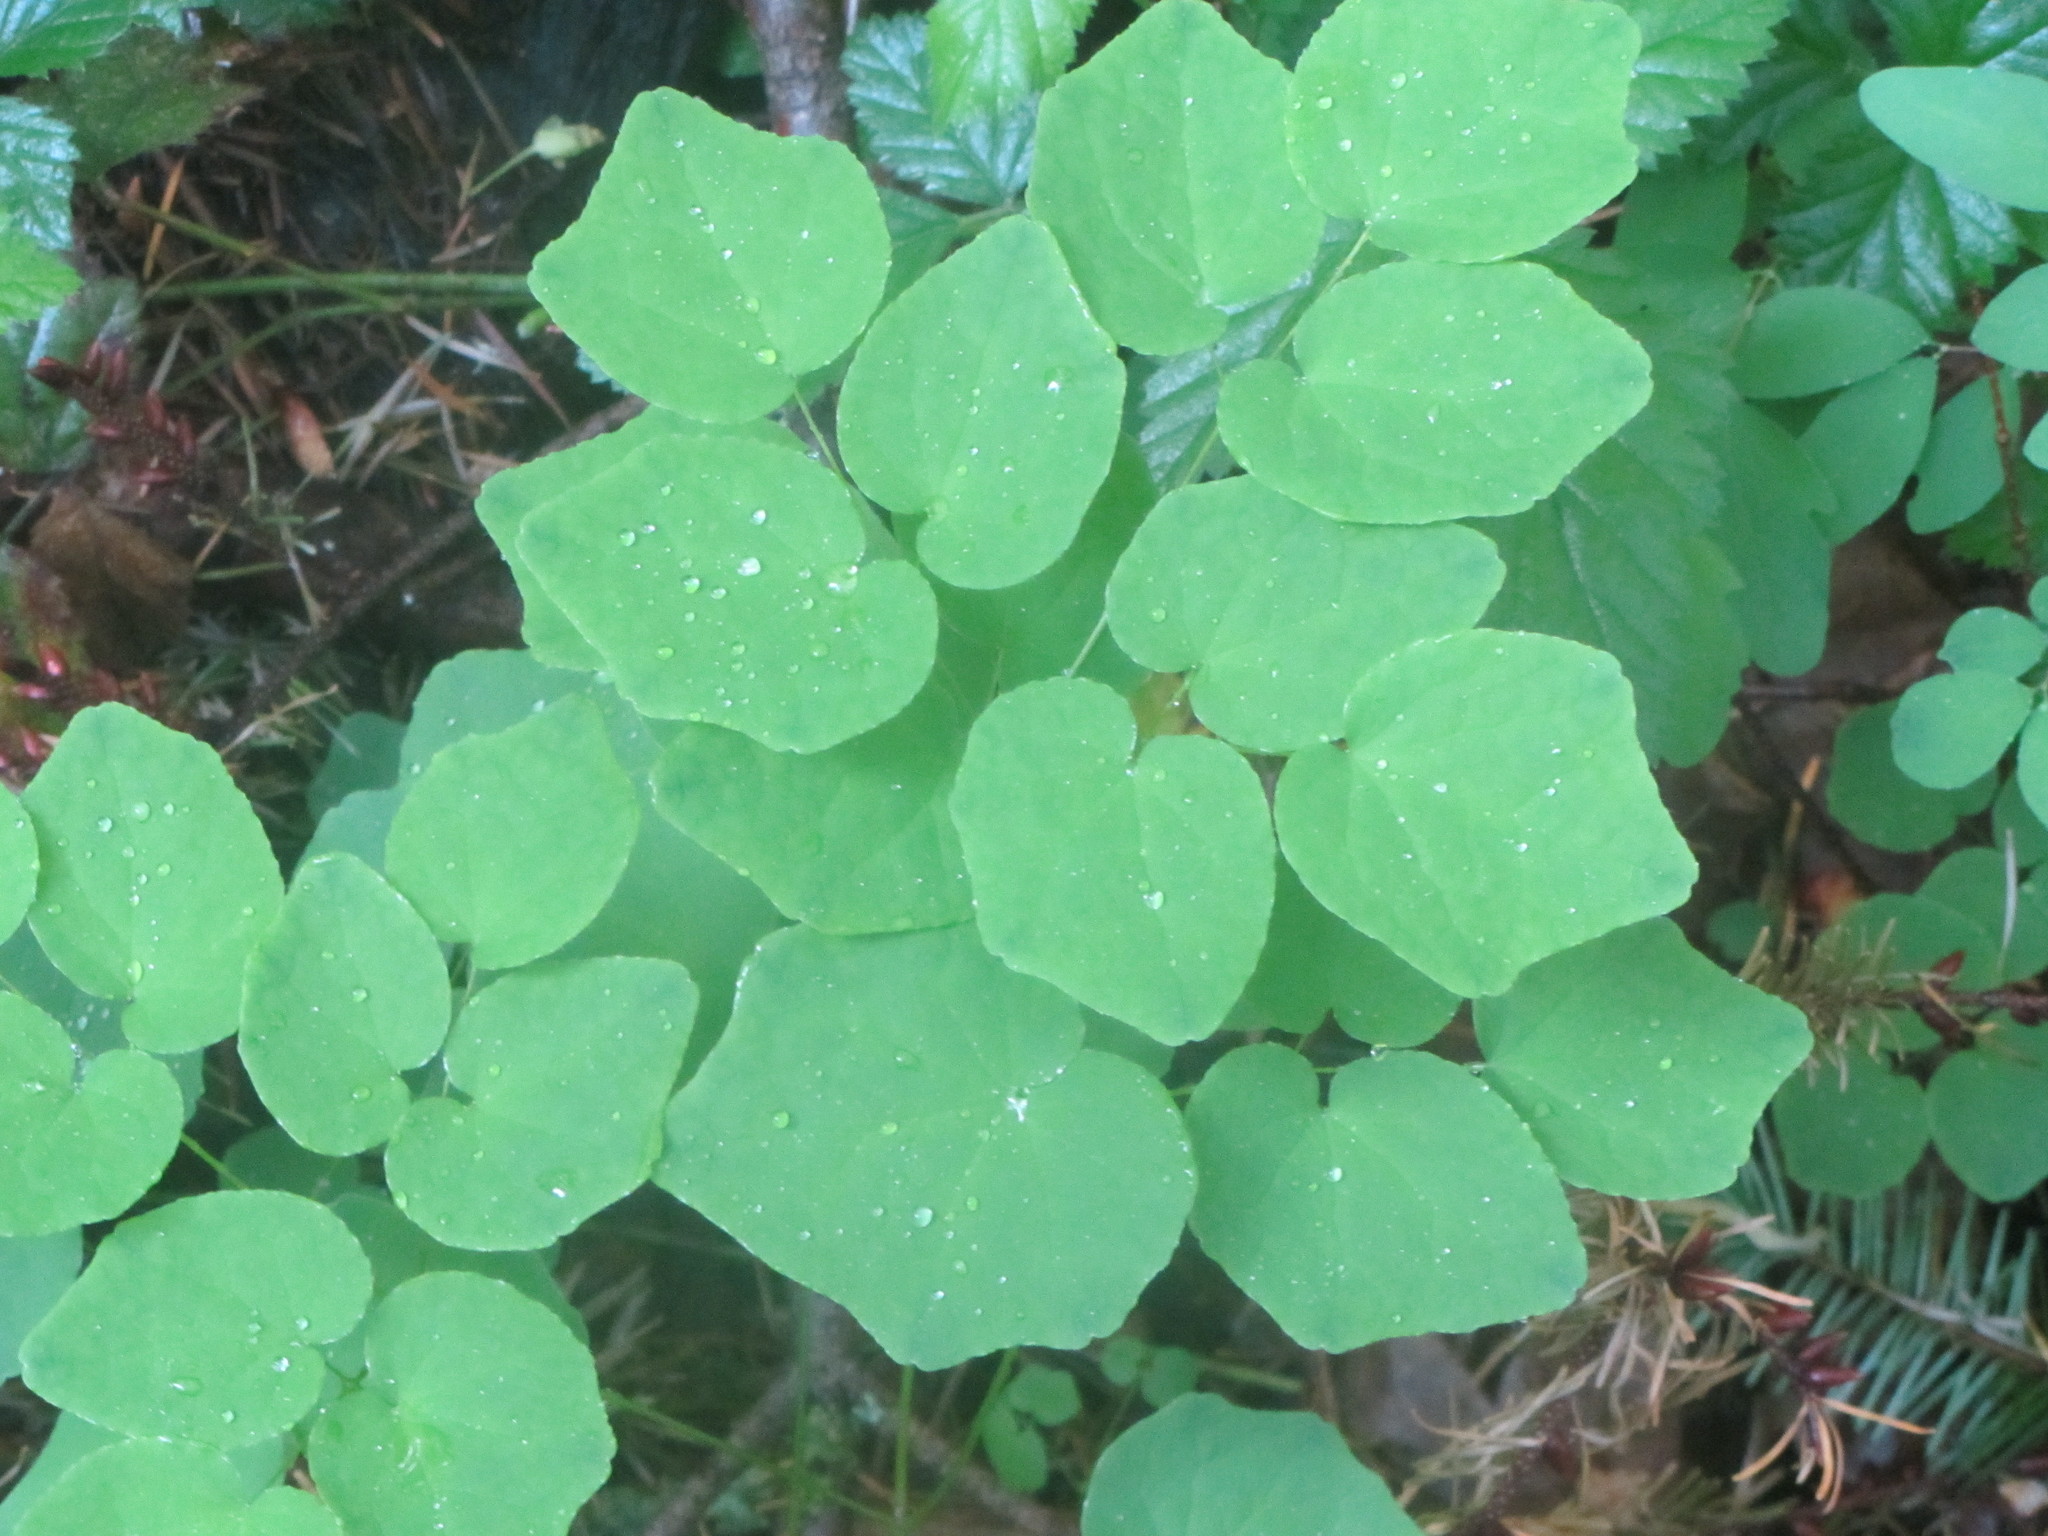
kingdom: Plantae
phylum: Tracheophyta
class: Magnoliopsida
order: Ranunculales
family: Berberidaceae
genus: Vancouveria
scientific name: Vancouveria hexandra
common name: Northern inside-out-flower
